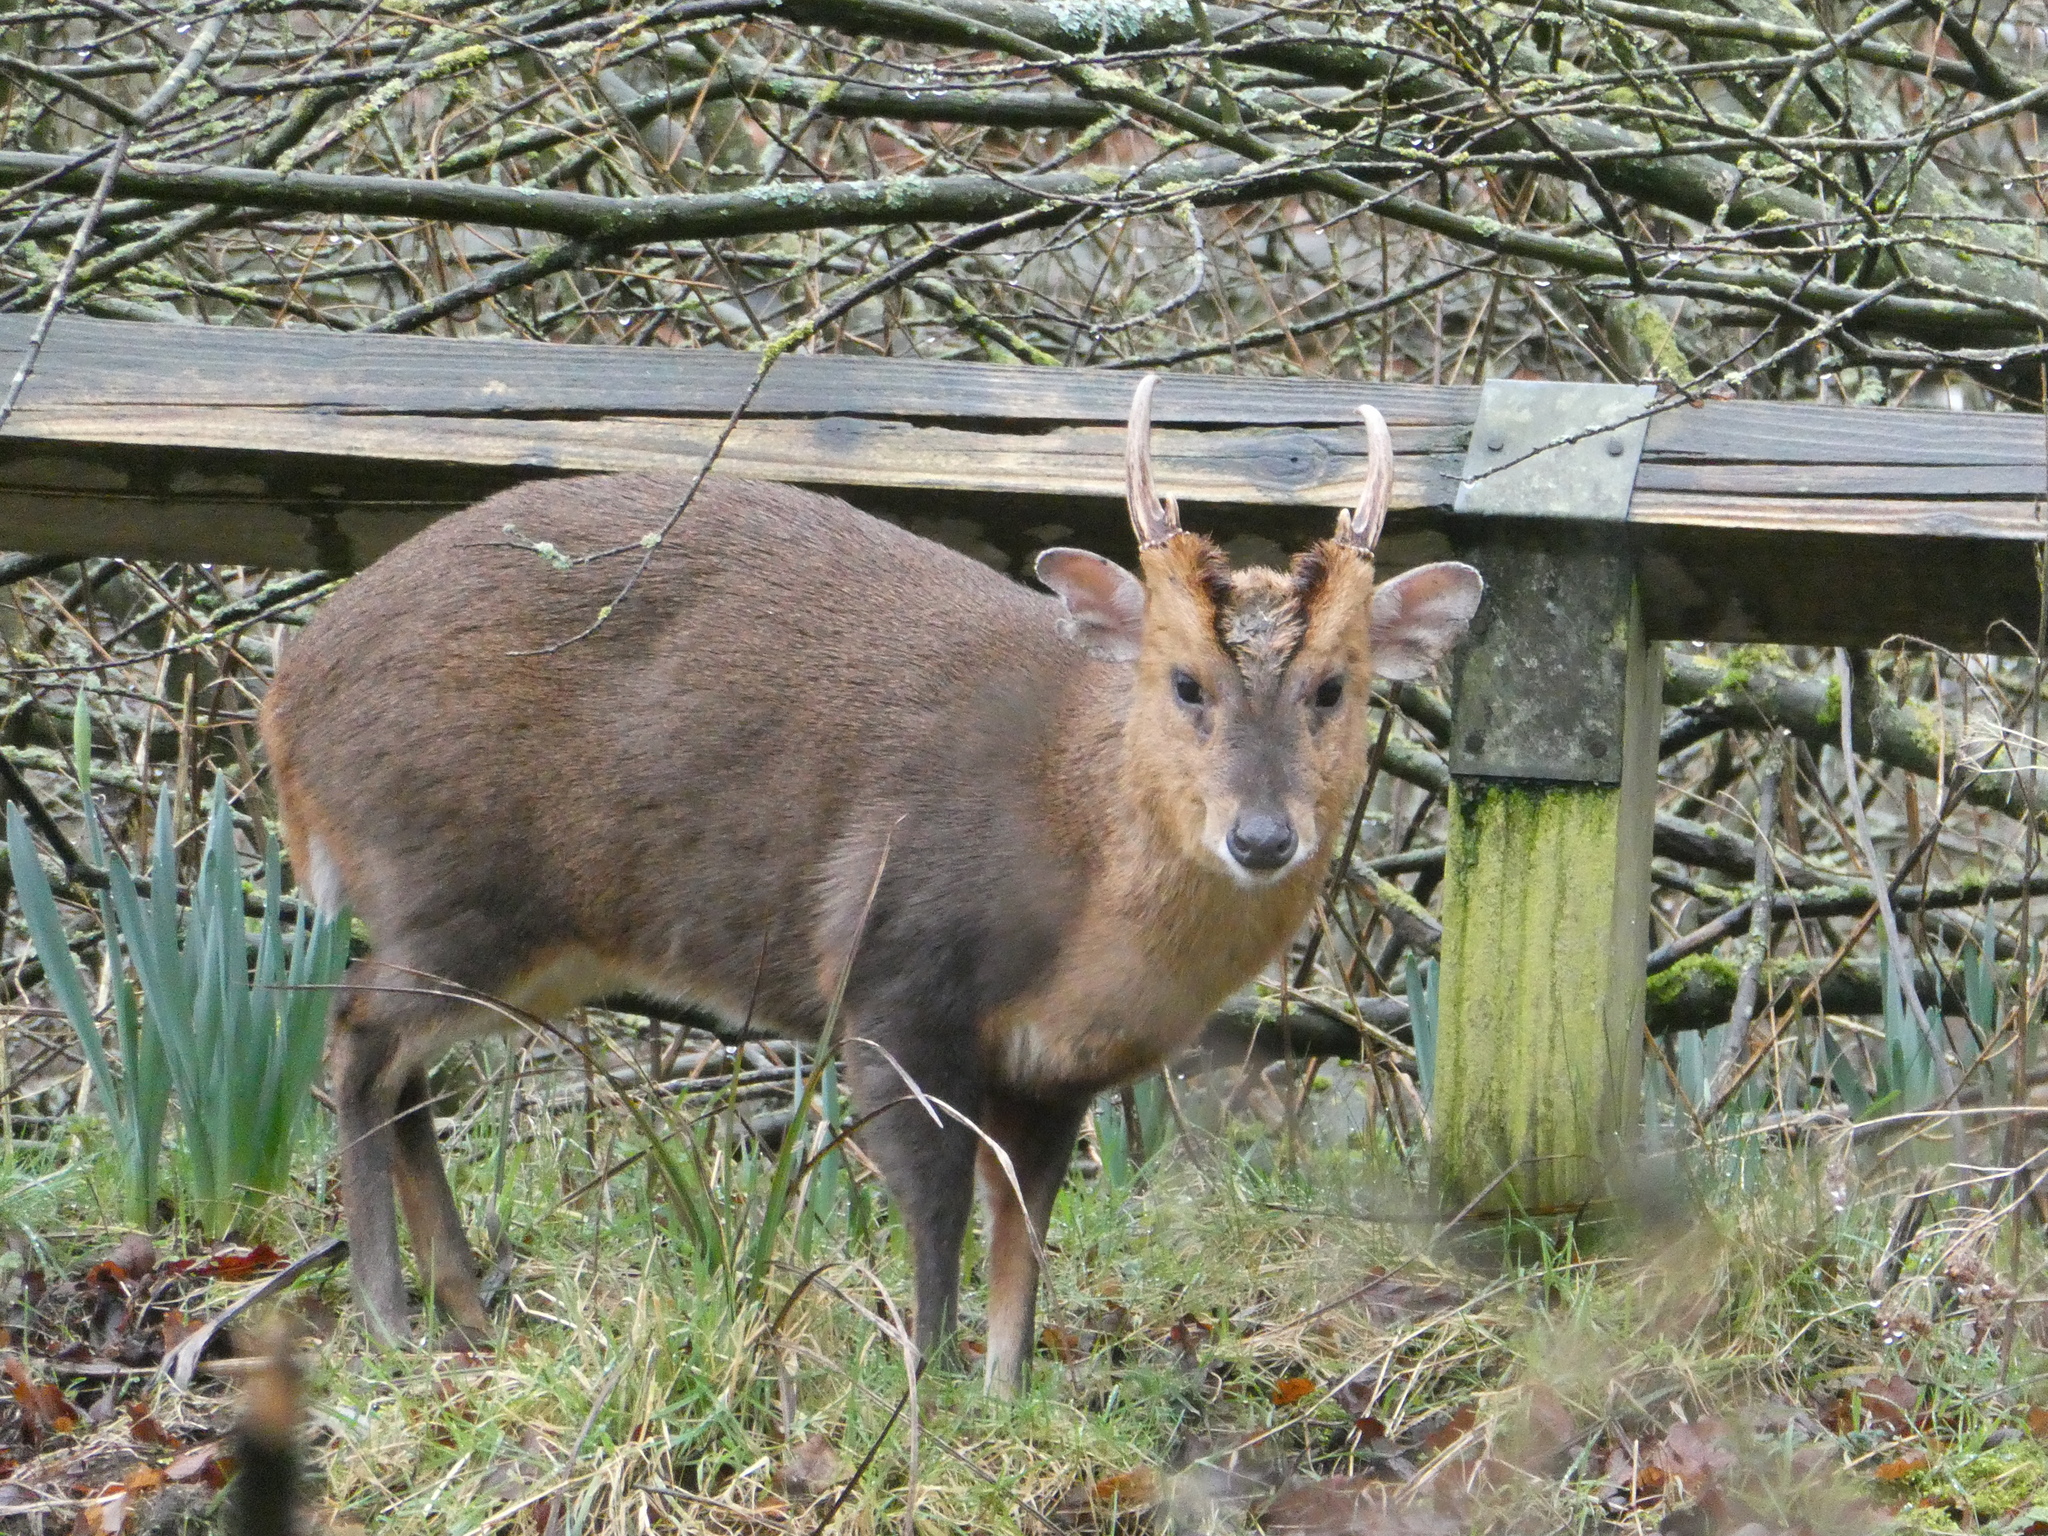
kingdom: Animalia
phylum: Chordata
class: Mammalia
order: Artiodactyla
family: Cervidae
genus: Muntiacus
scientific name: Muntiacus reevesi
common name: Reeves' muntjac
